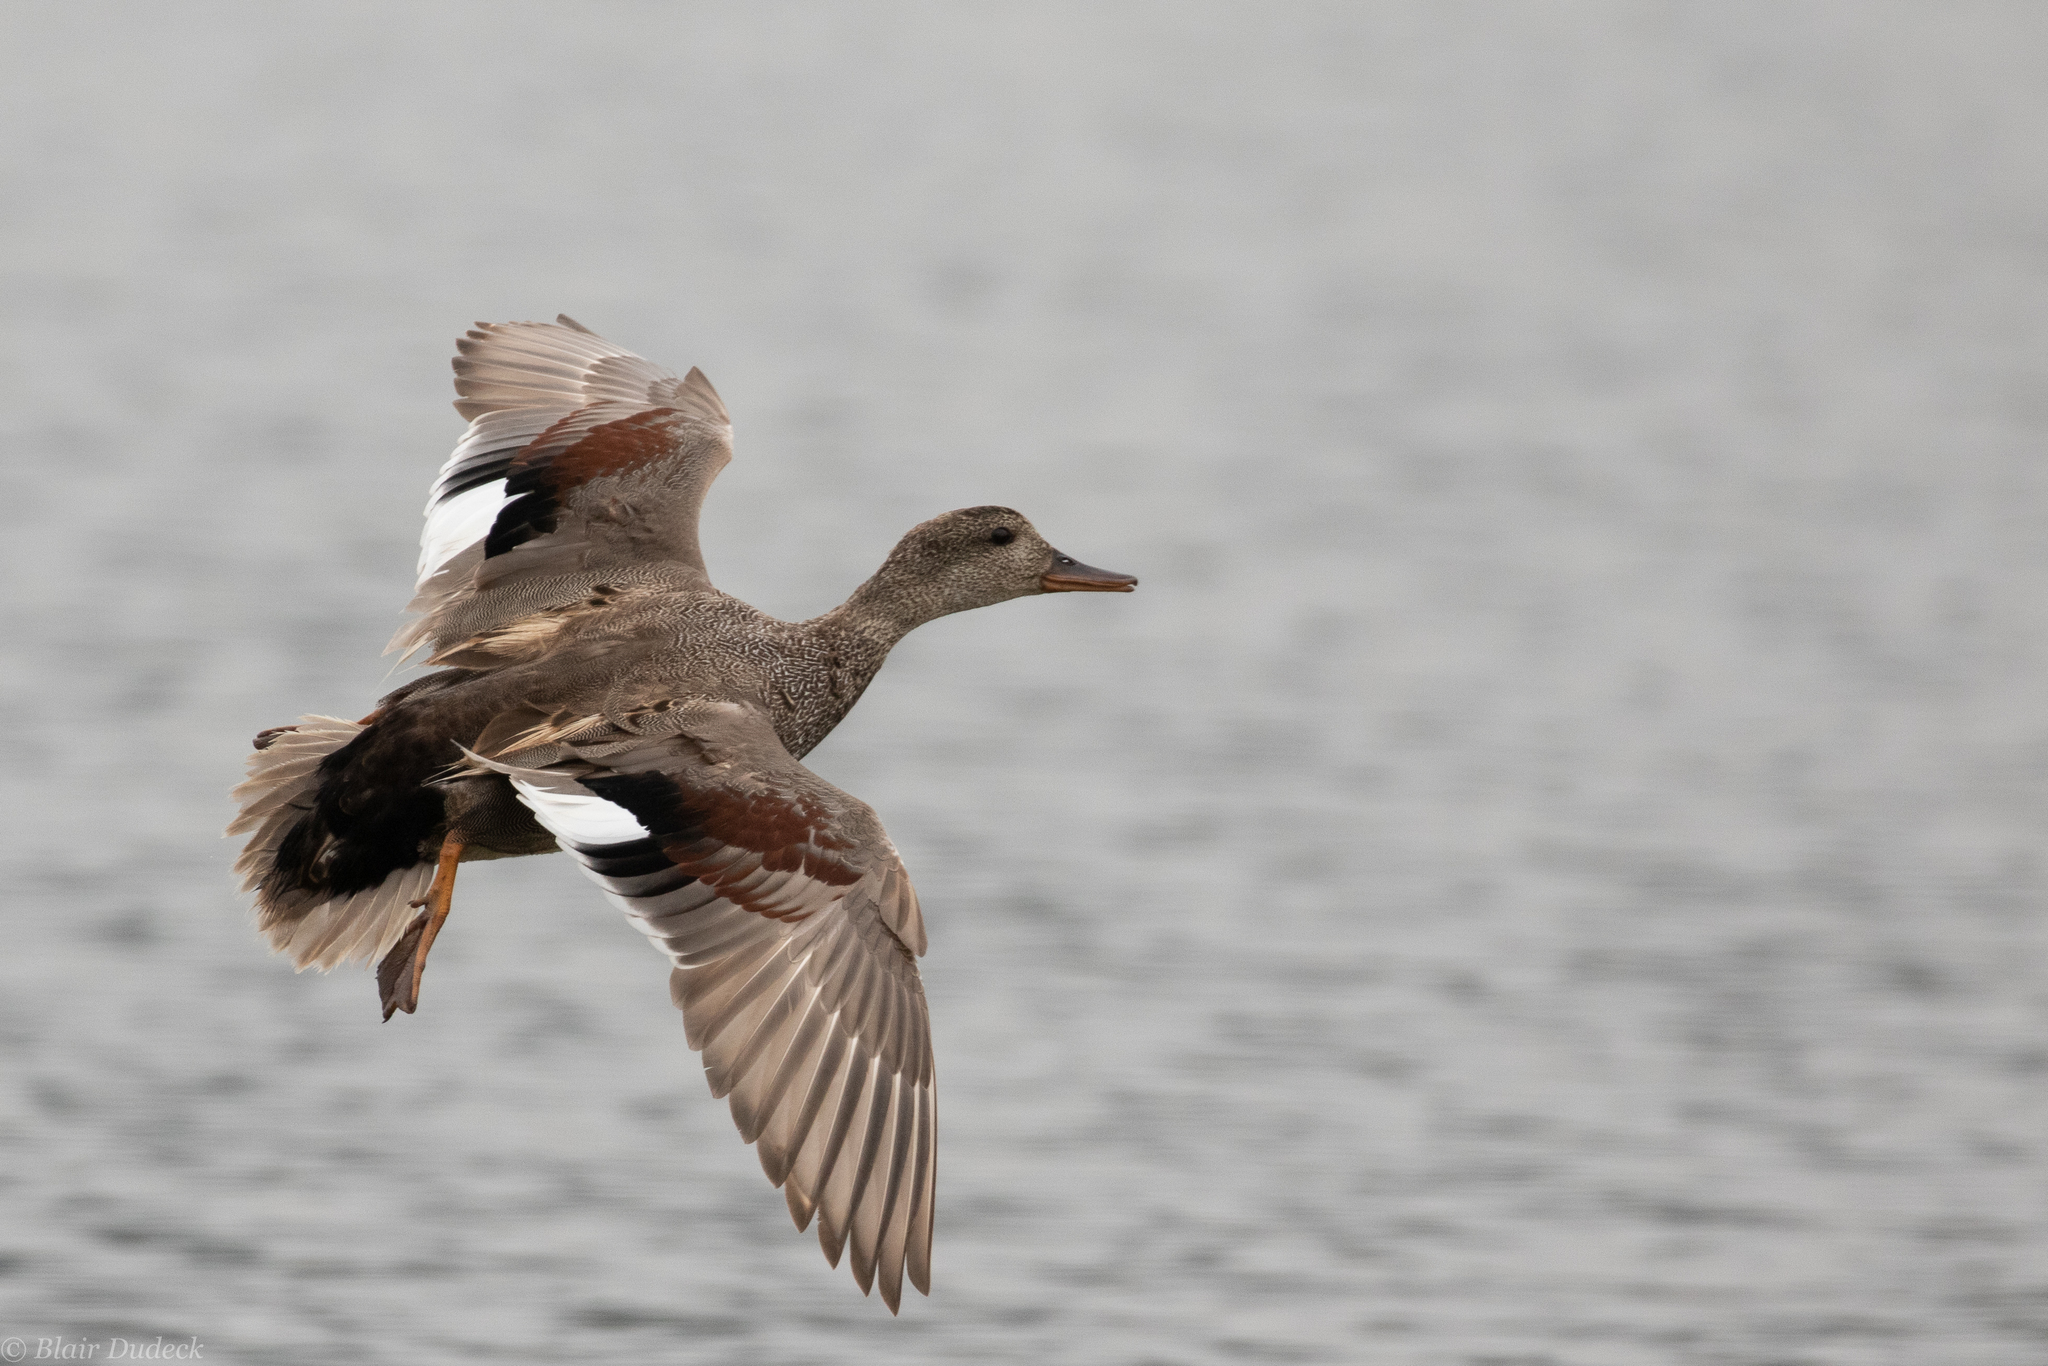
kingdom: Animalia
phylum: Chordata
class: Aves
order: Anseriformes
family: Anatidae
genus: Mareca
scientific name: Mareca strepera
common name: Gadwall
